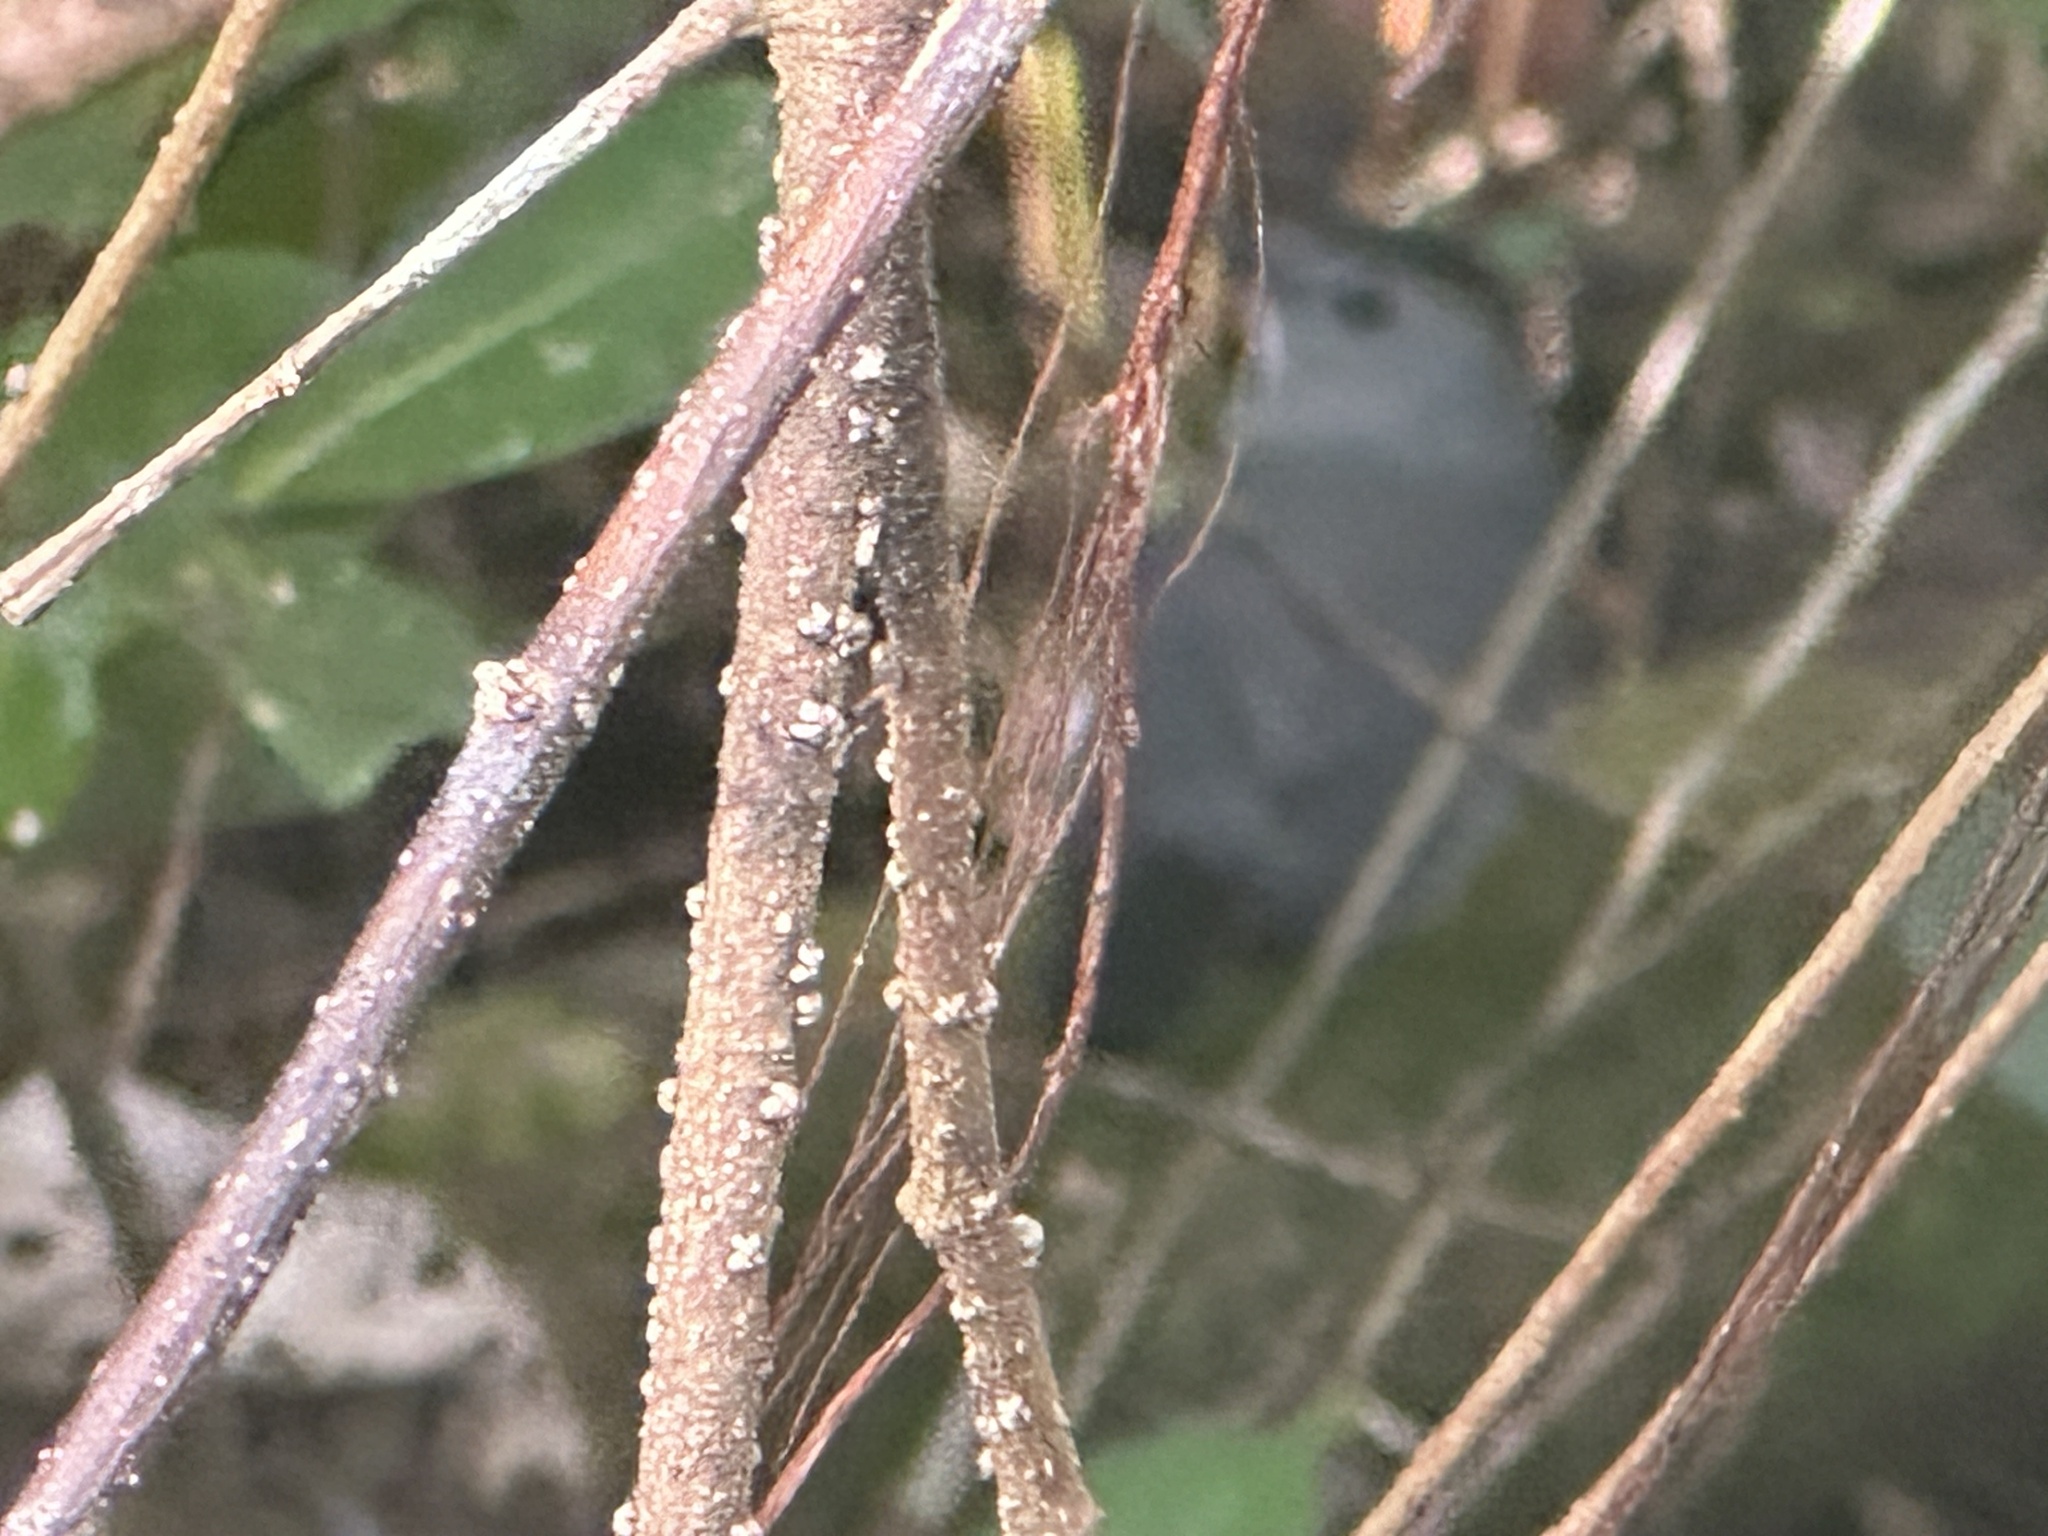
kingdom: Animalia
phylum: Chordata
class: Aves
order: Passeriformes
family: Mimidae
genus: Dumetella
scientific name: Dumetella carolinensis
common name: Gray catbird
